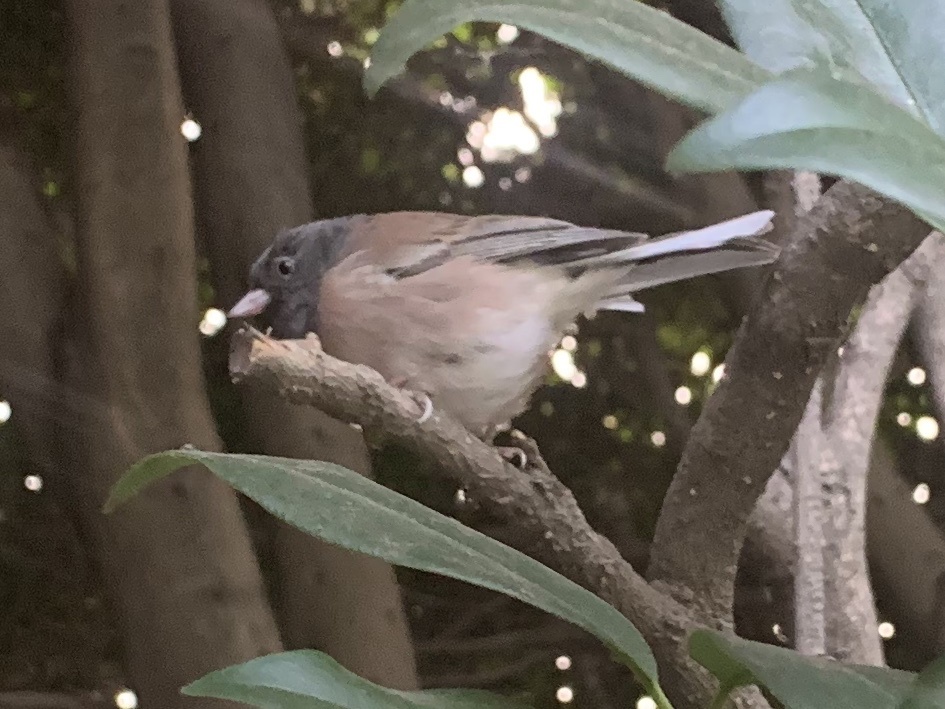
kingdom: Animalia
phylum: Chordata
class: Aves
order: Passeriformes
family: Passerellidae
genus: Junco
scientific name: Junco hyemalis
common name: Dark-eyed junco
